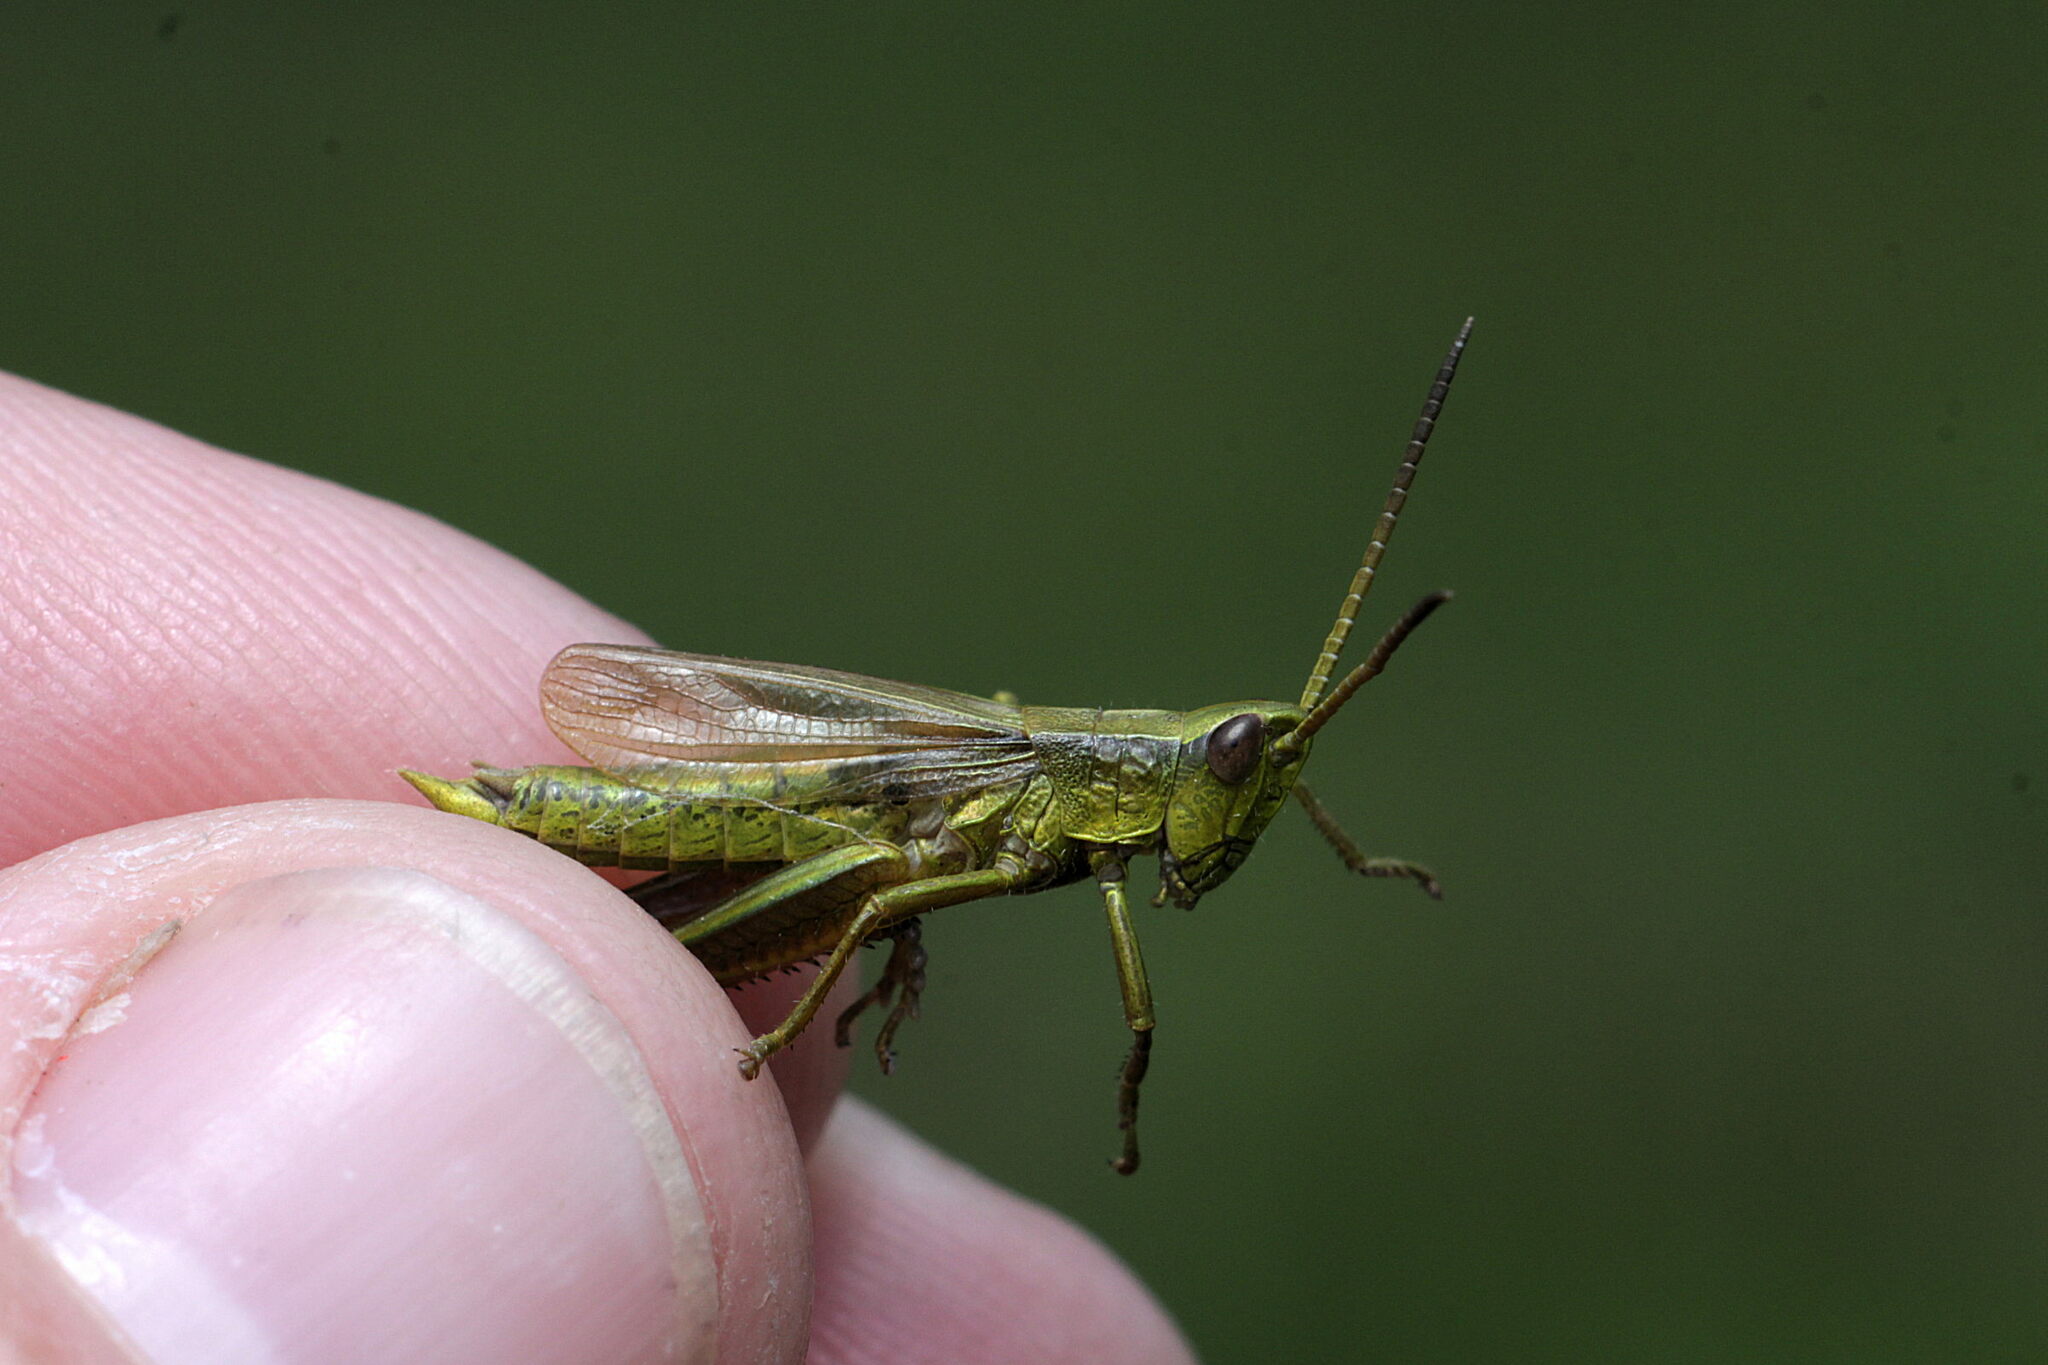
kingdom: Animalia
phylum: Arthropoda
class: Insecta
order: Orthoptera
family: Acrididae
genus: Chrysochraon
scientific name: Chrysochraon dispar
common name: Large gold grasshopper
